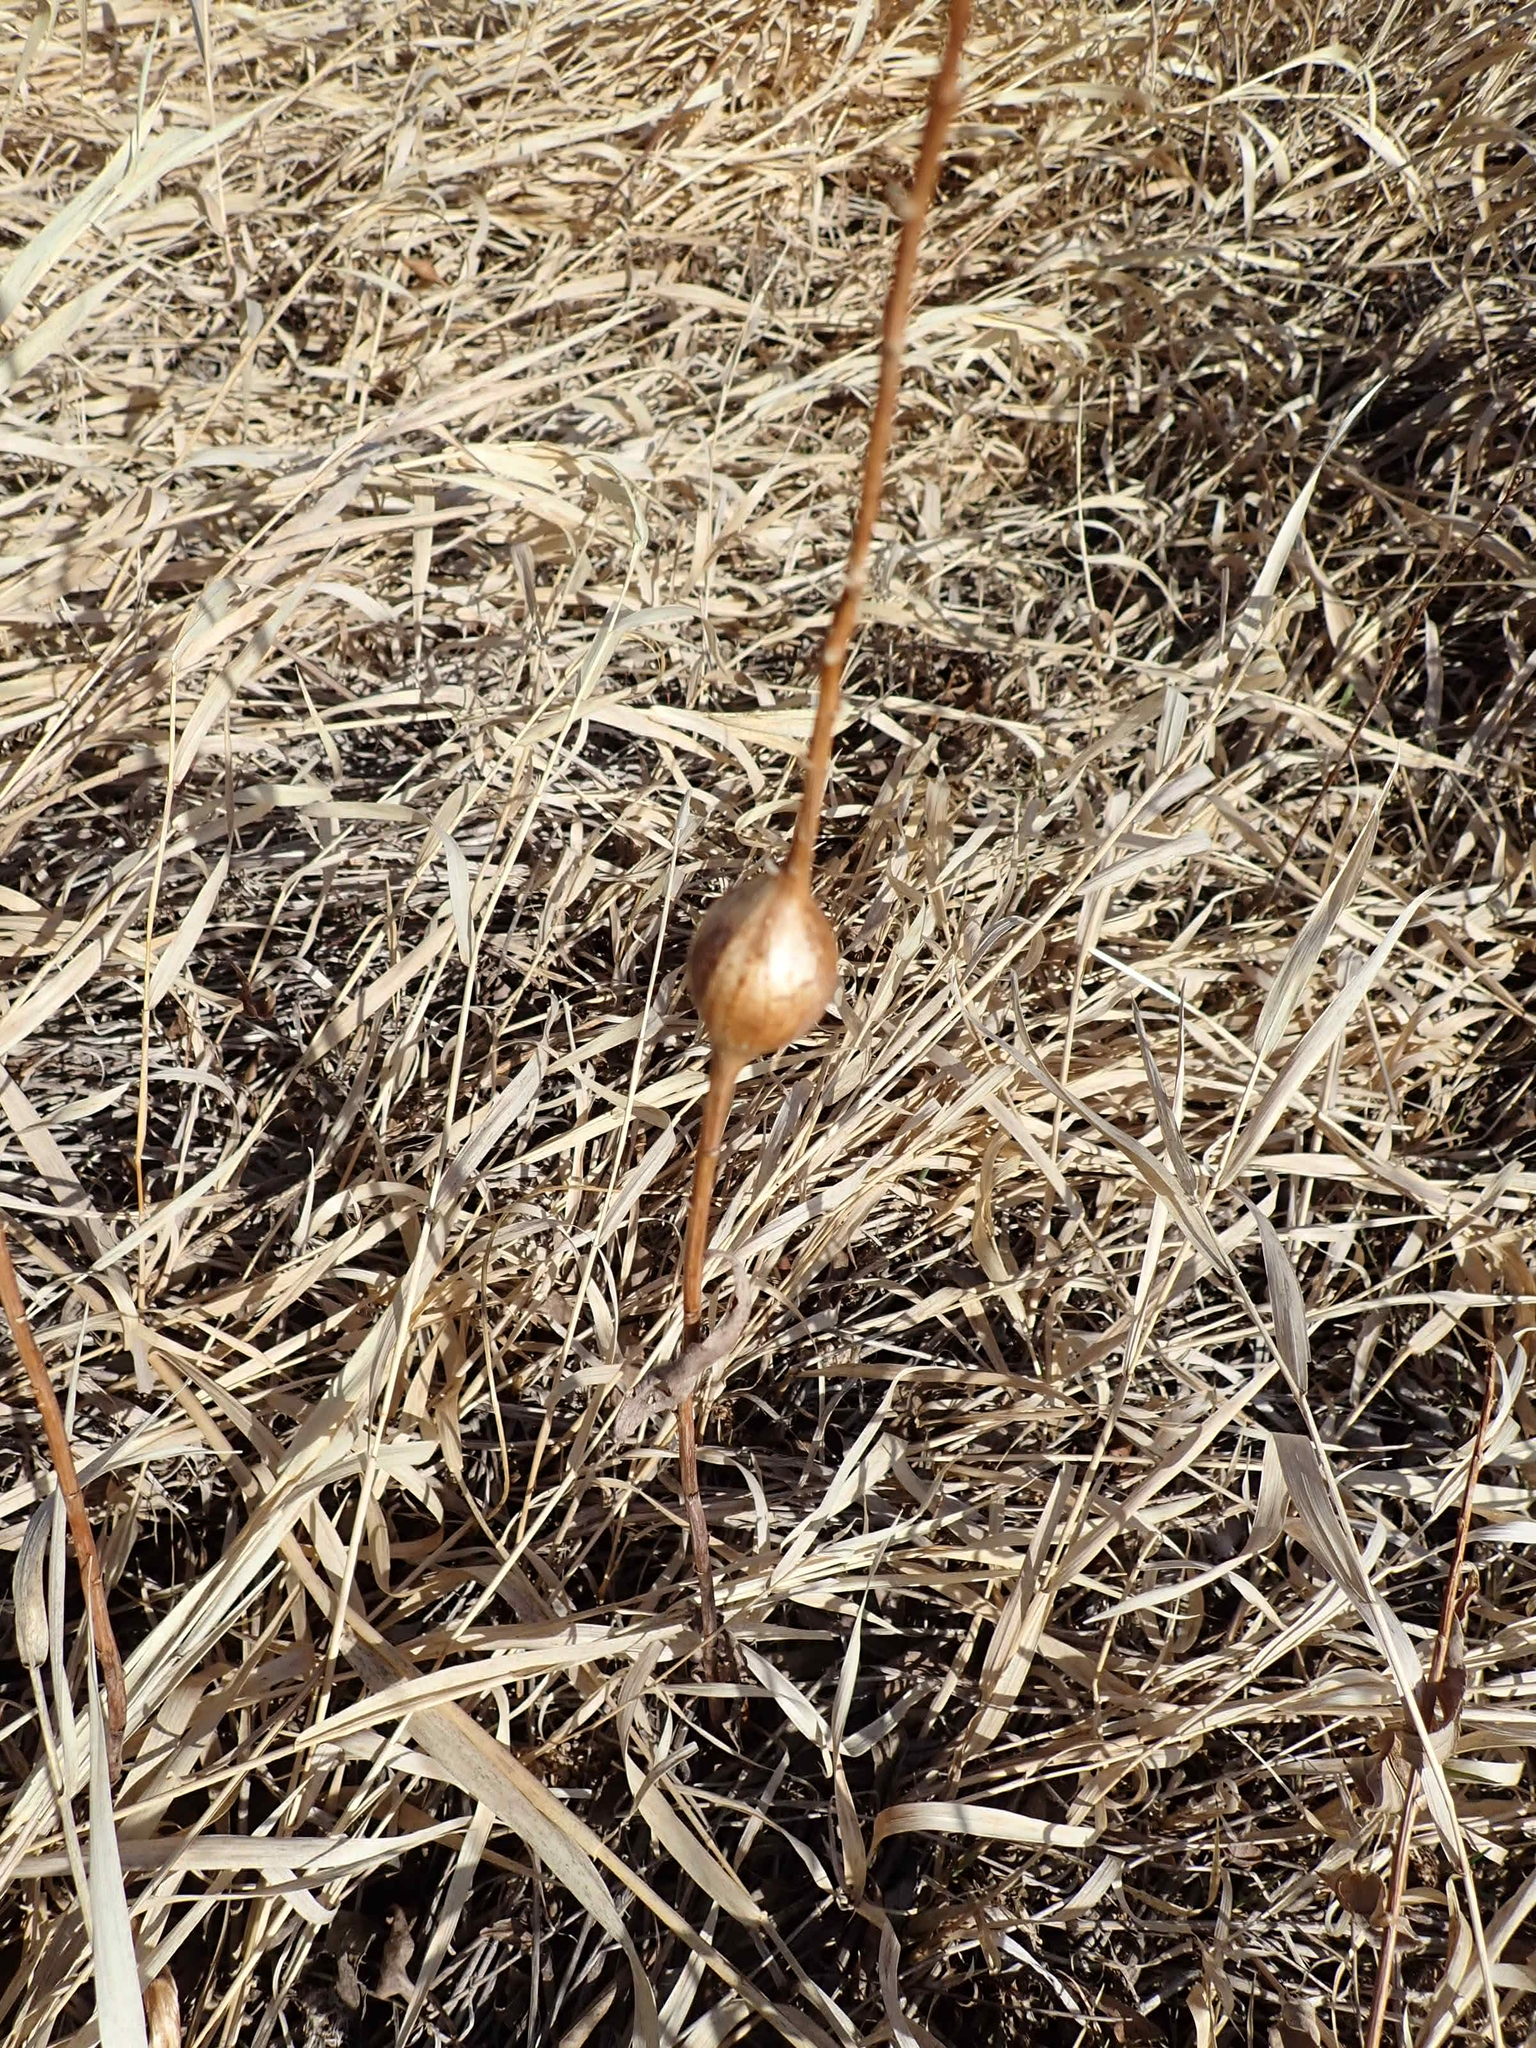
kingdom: Animalia
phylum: Arthropoda
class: Insecta
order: Diptera
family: Tephritidae
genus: Eurosta
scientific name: Eurosta solidaginis
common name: Goldenrod gall fly
